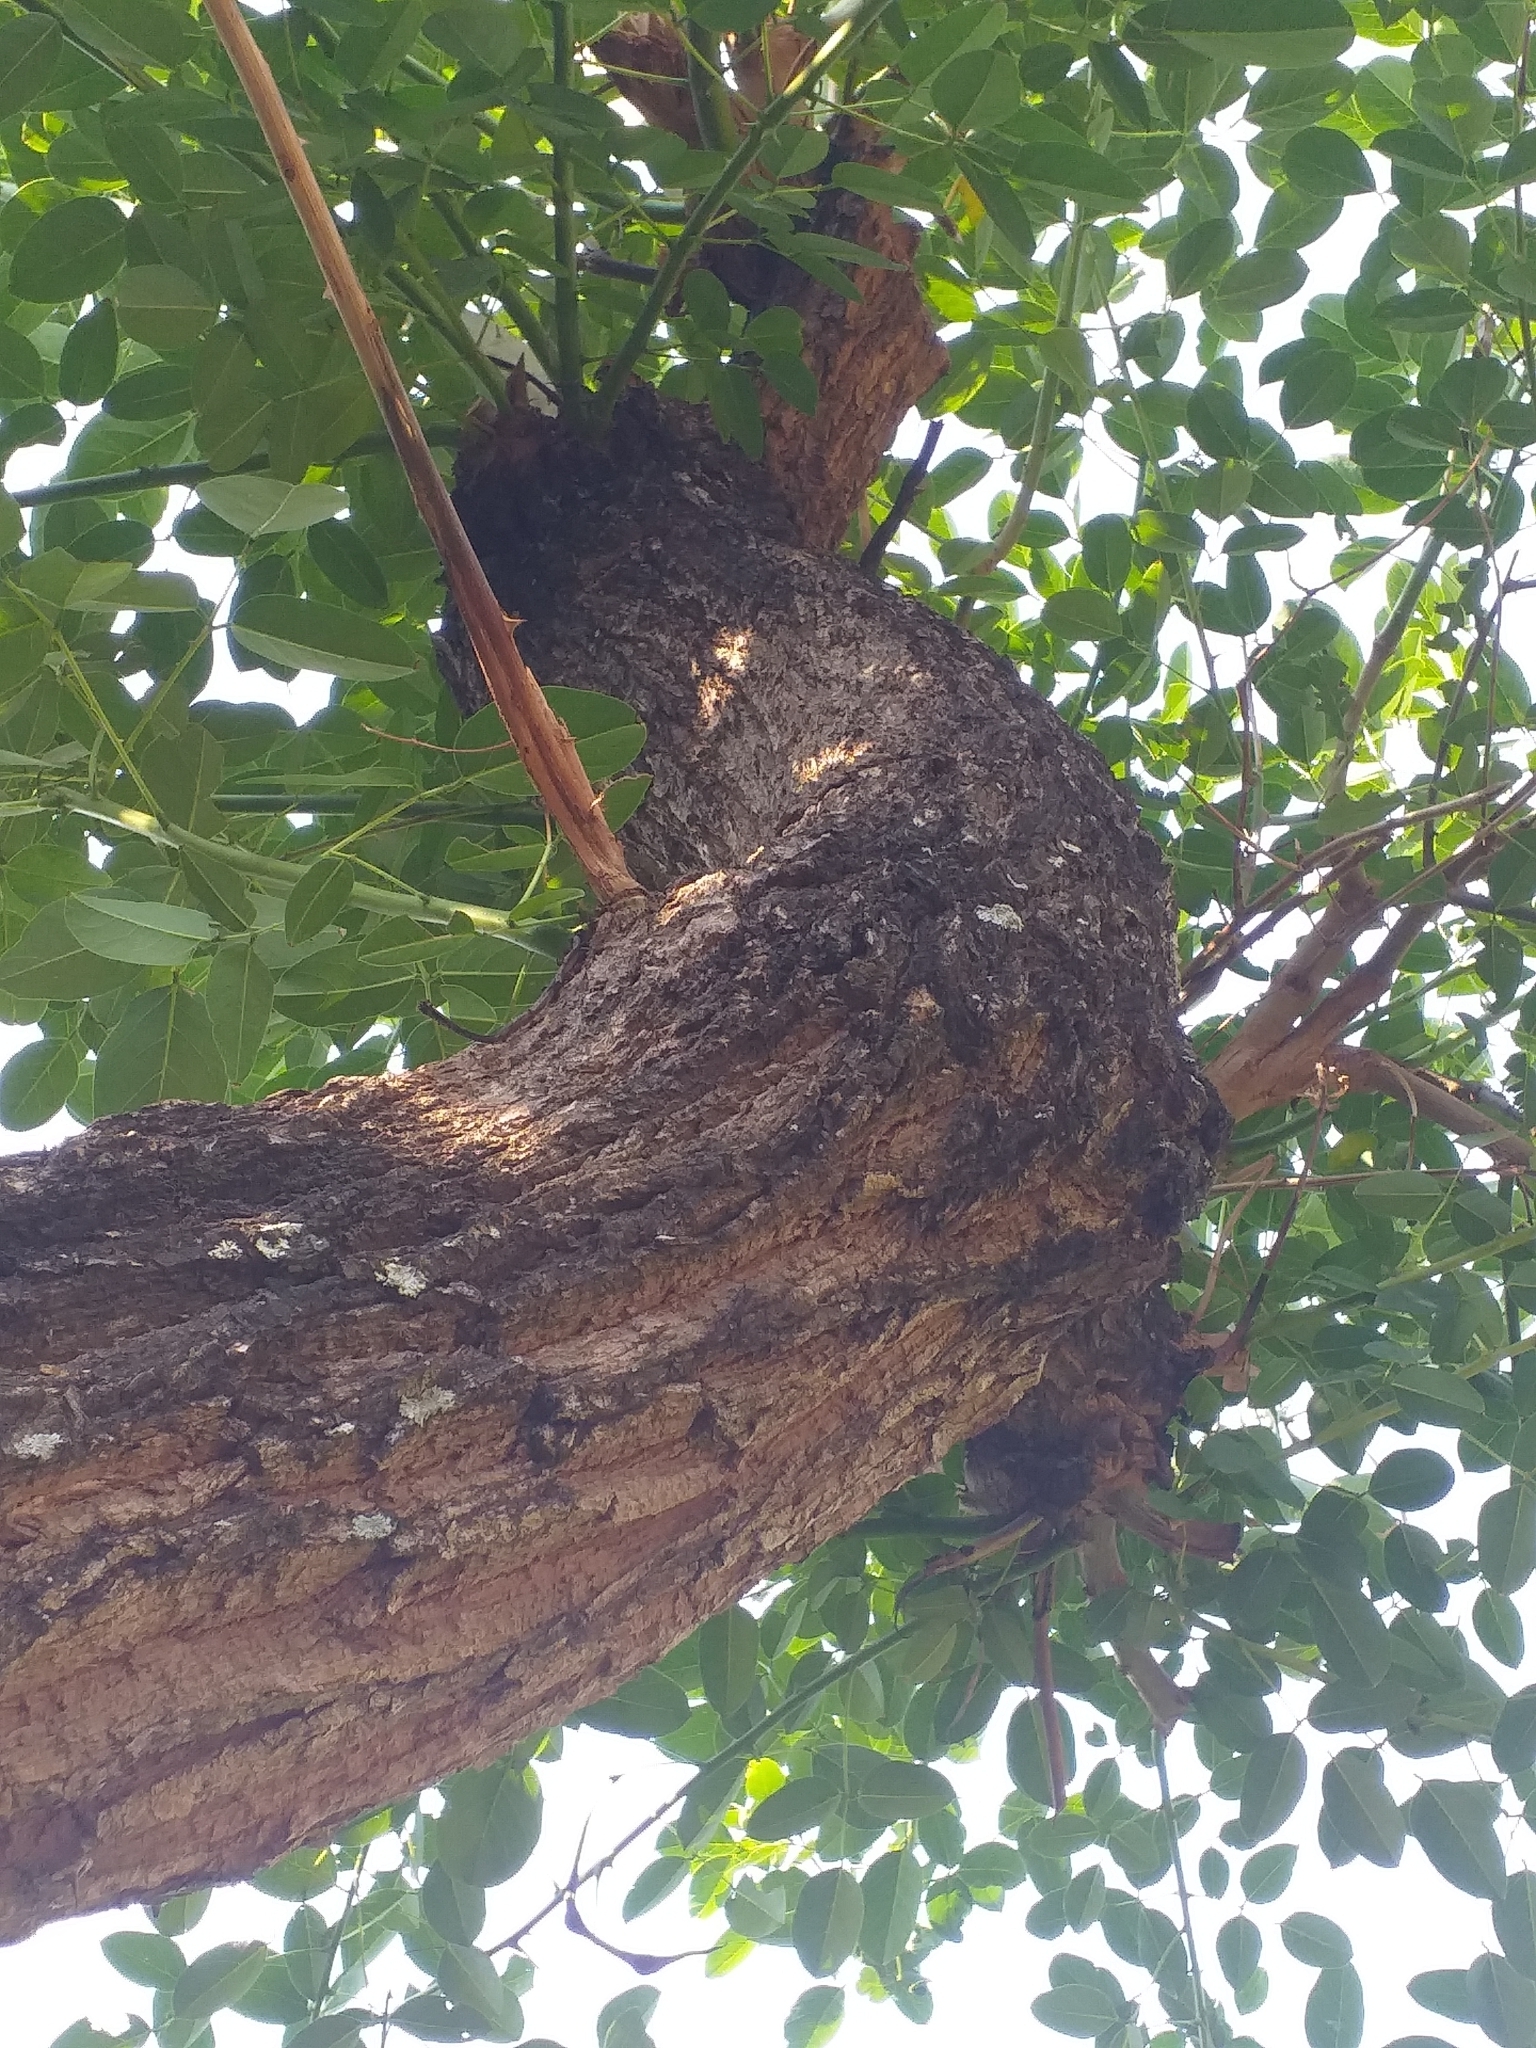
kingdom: Plantae
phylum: Tracheophyta
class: Magnoliopsida
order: Fabales
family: Fabaceae
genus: Erythrina
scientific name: Erythrina crista-galli
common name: Cockspur coral tree
